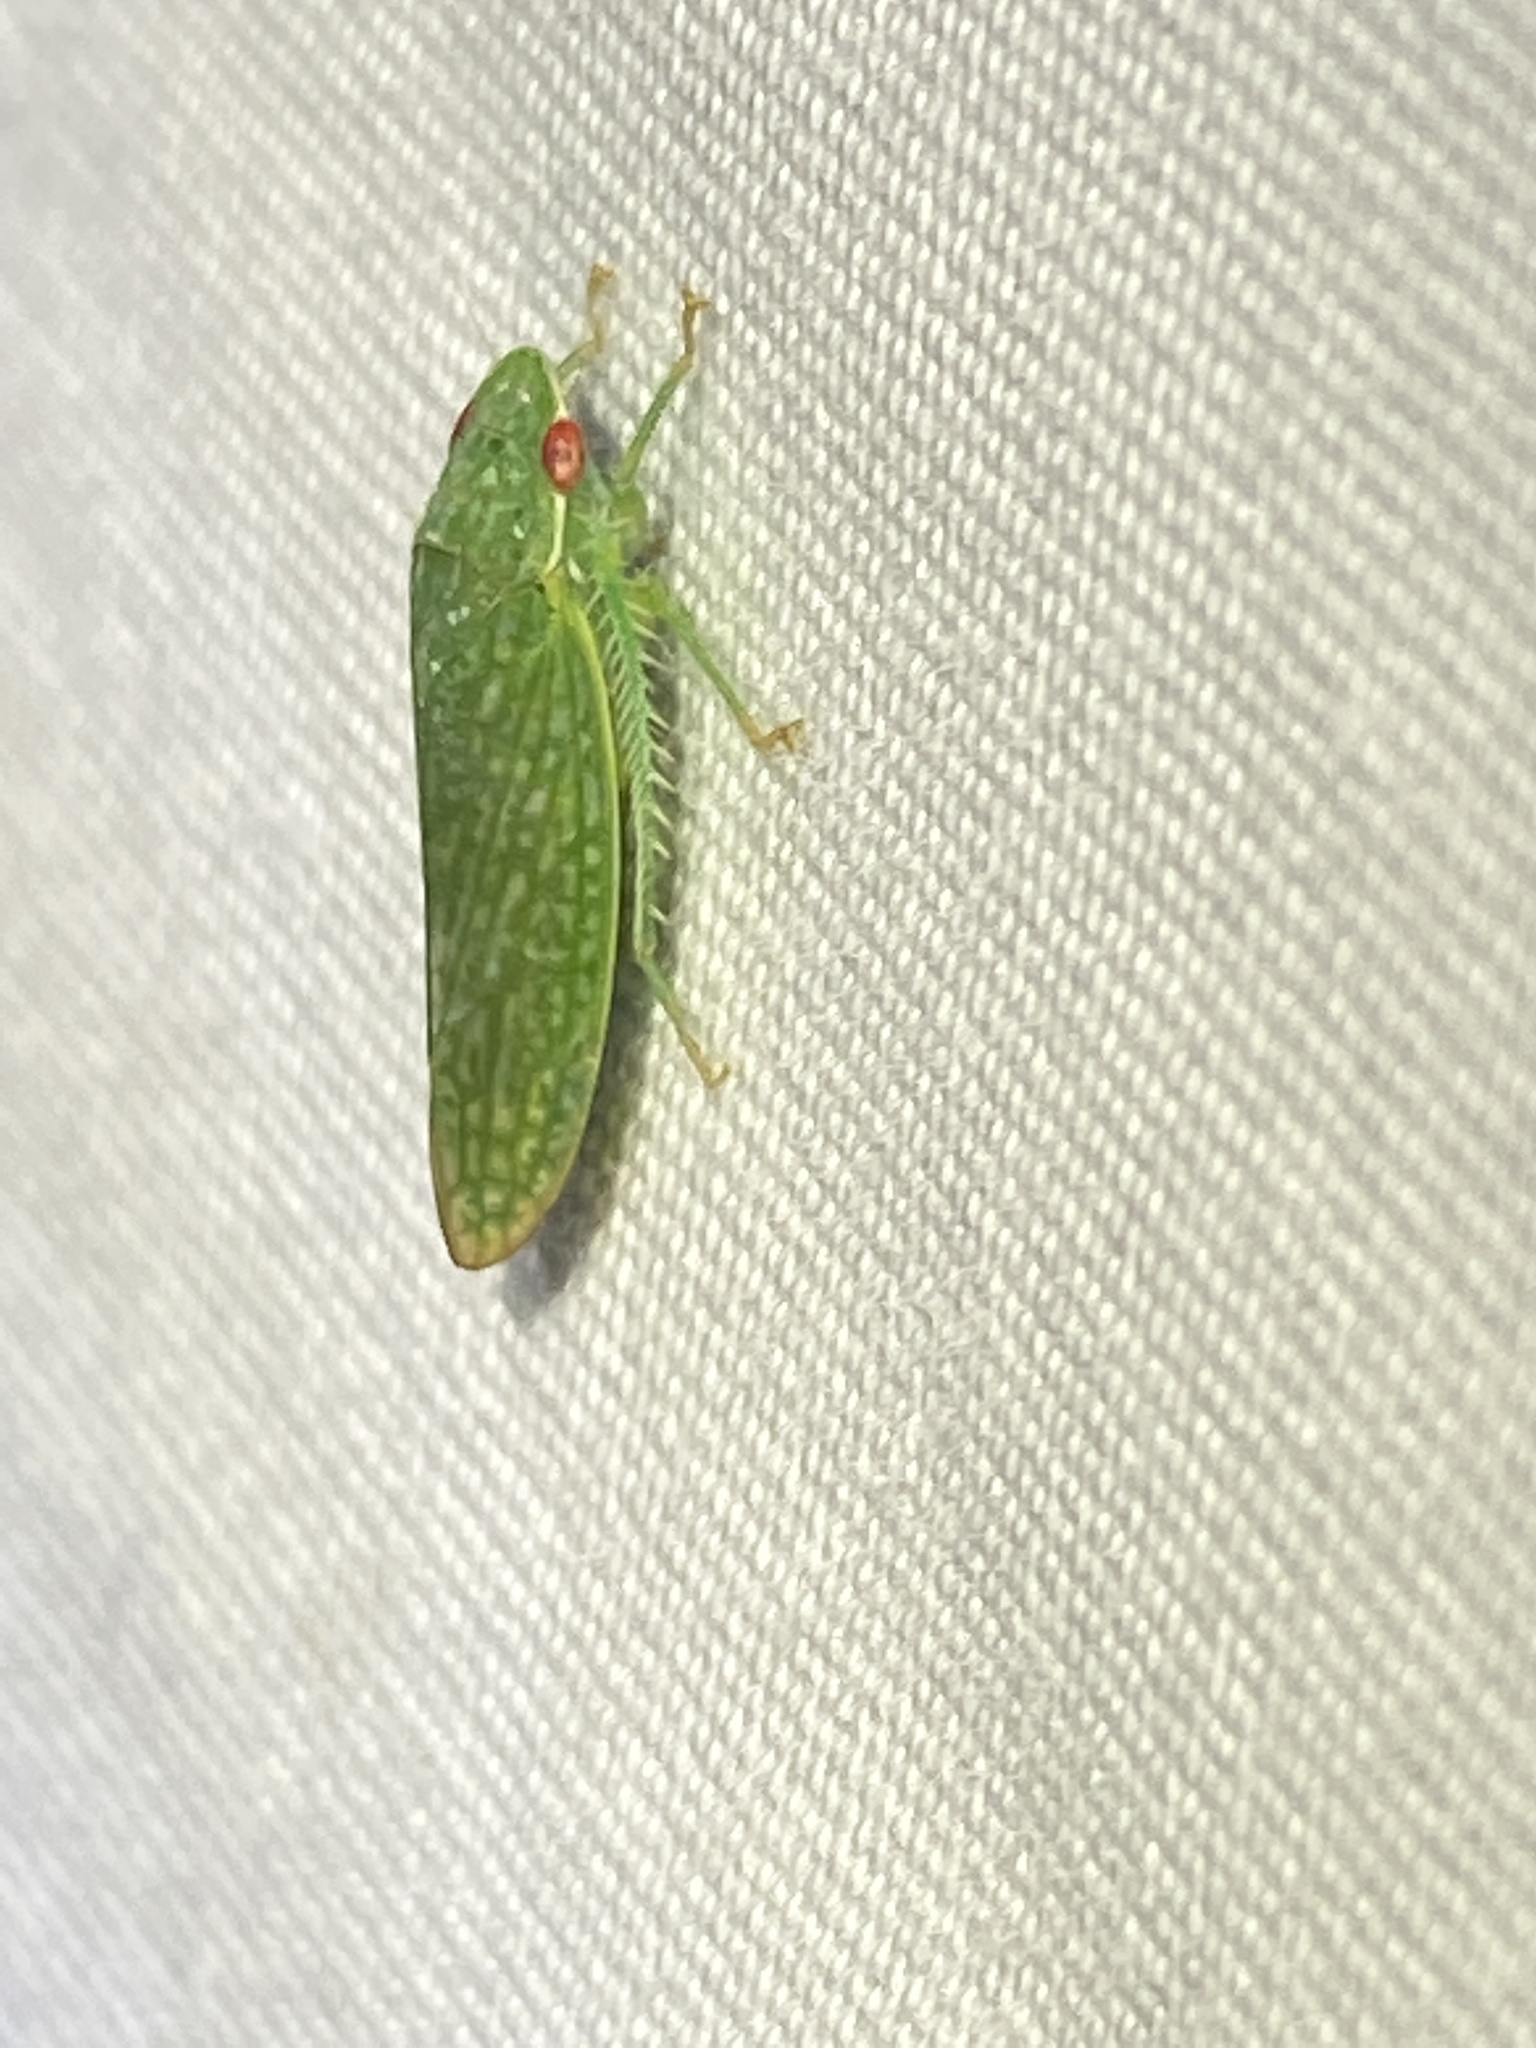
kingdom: Animalia
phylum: Arthropoda
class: Insecta
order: Hemiptera
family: Cicadellidae
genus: Rugosana
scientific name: Rugosana querci
